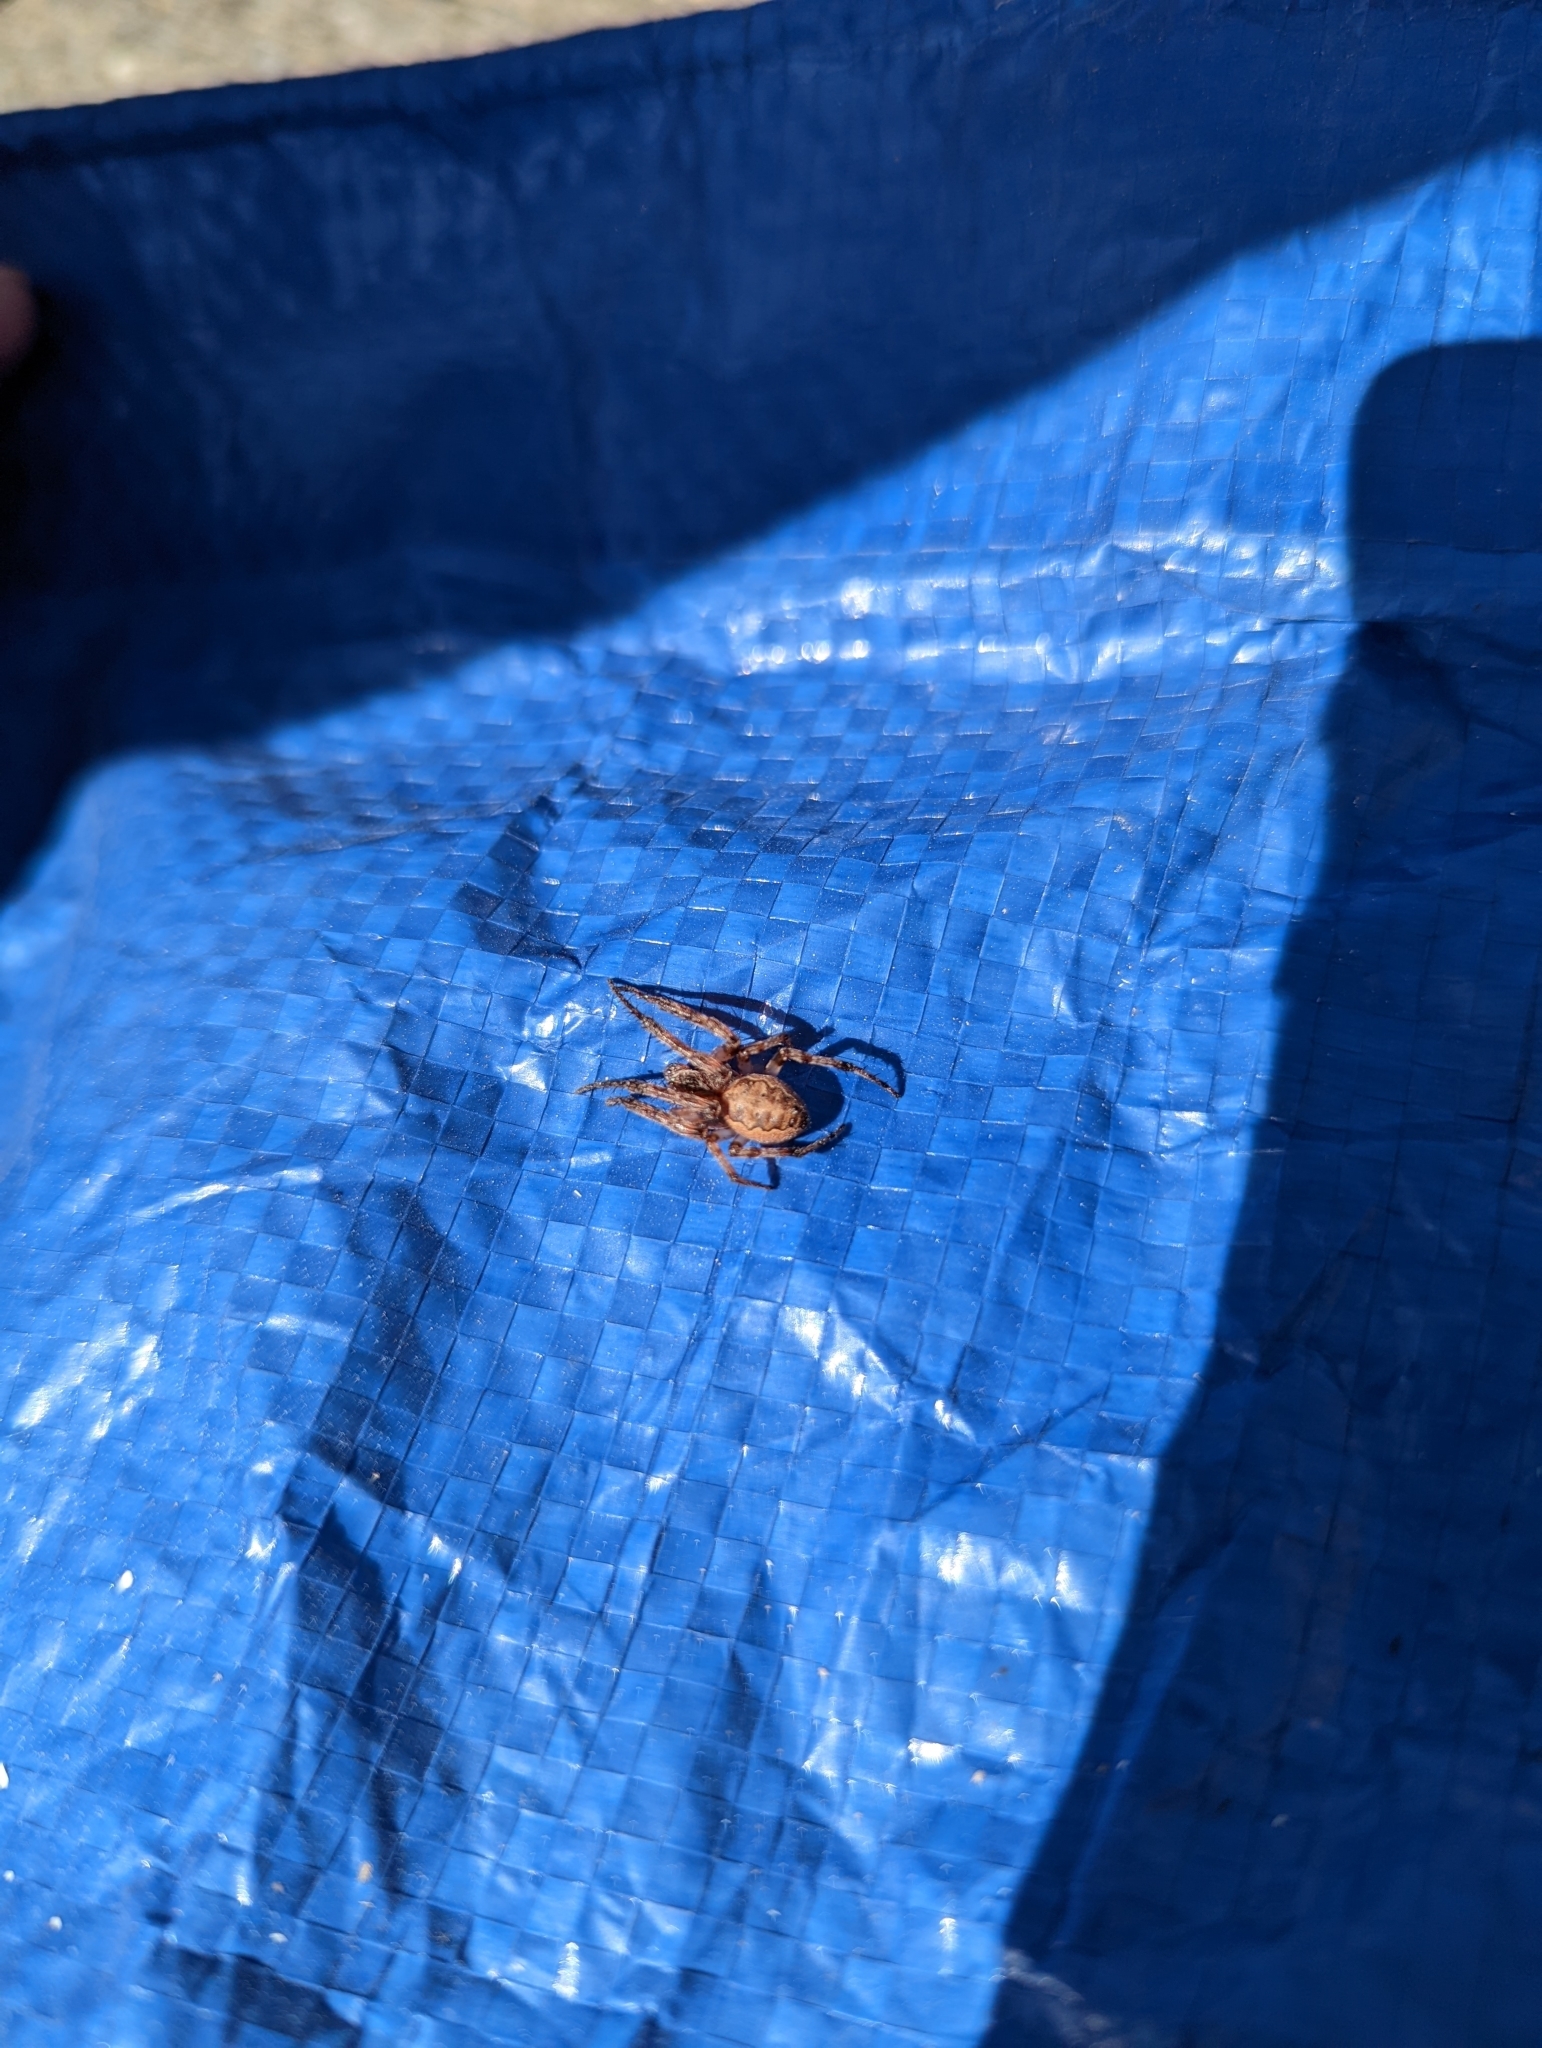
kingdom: Animalia
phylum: Arthropoda
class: Arachnida
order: Araneae
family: Araneidae
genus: Larinioides
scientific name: Larinioides cornutus
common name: Furrow orbweaver
